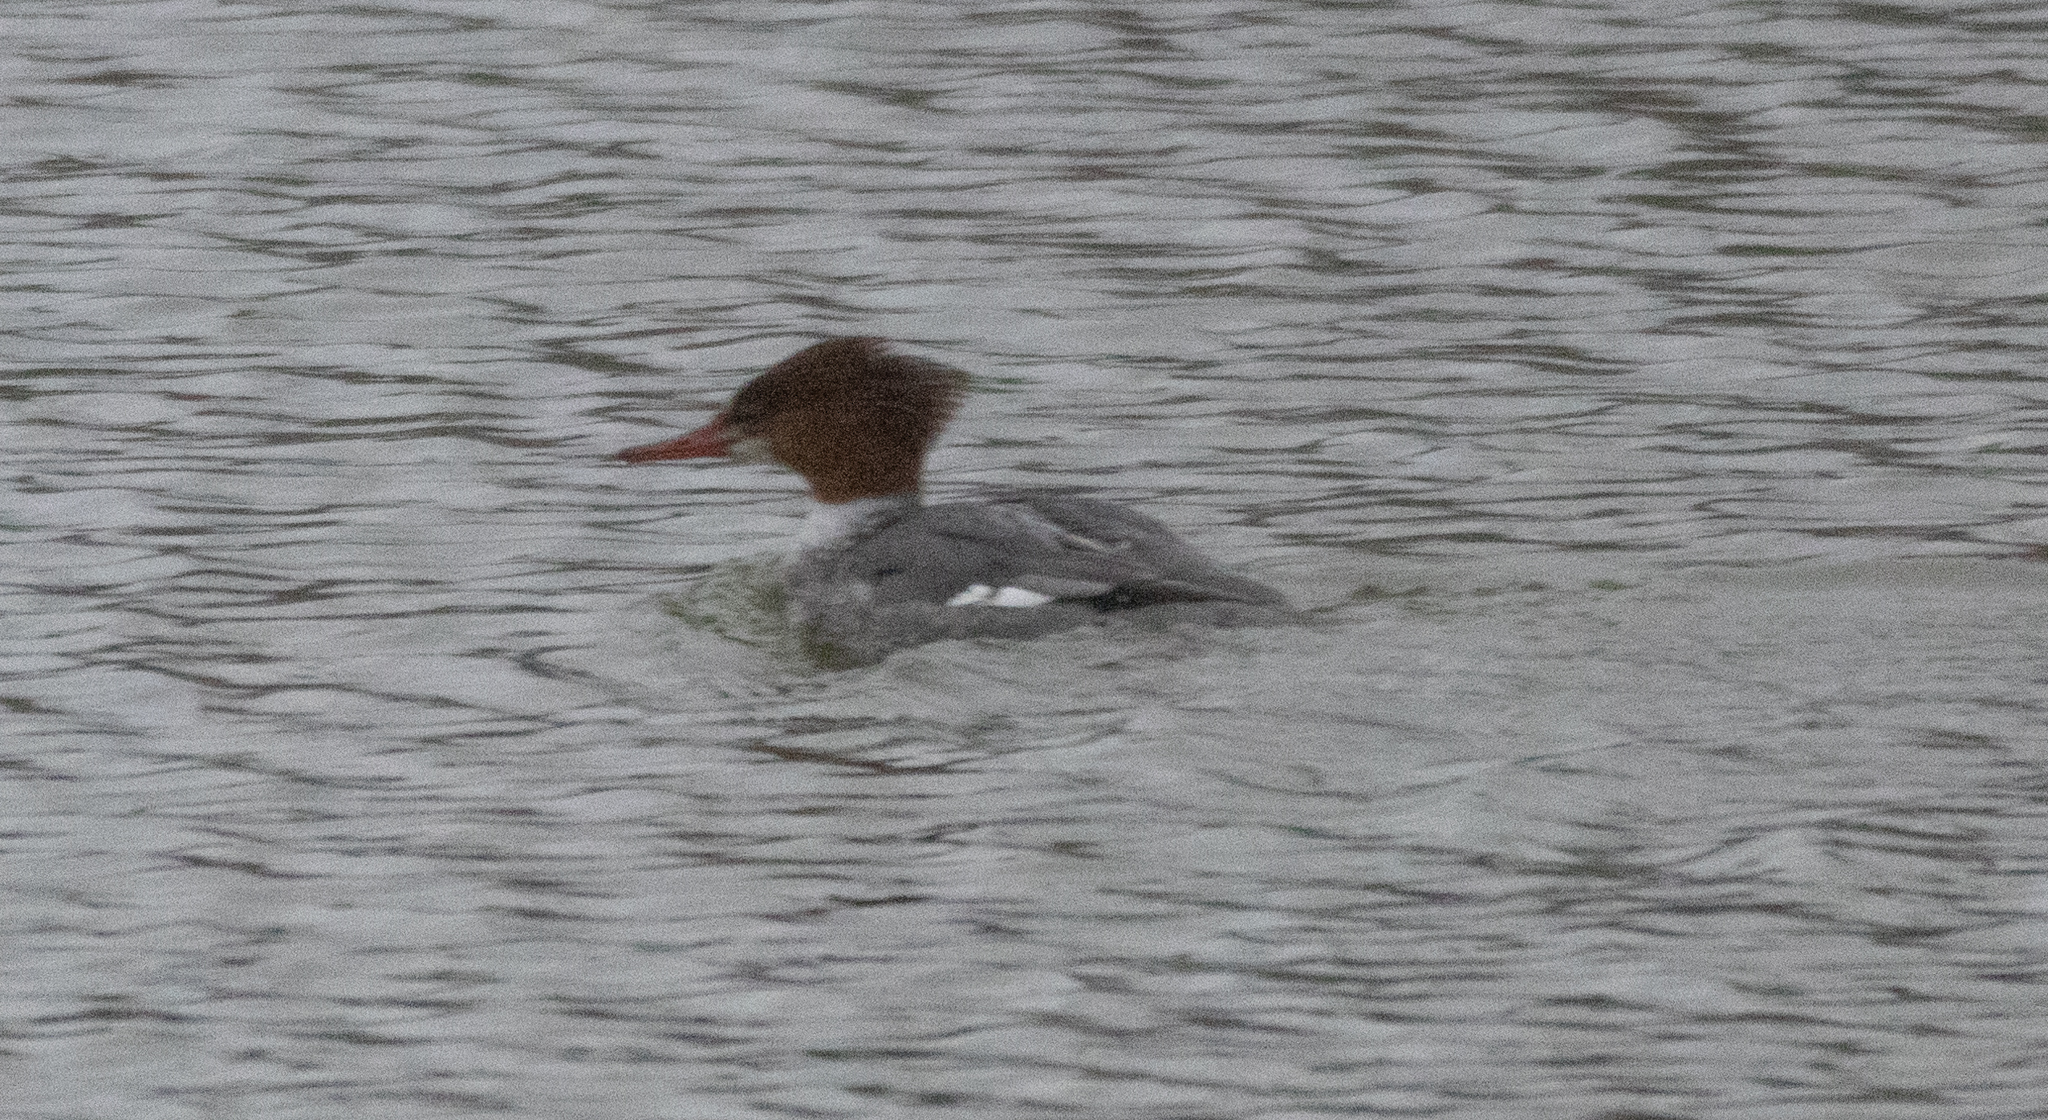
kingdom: Animalia
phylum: Chordata
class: Aves
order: Anseriformes
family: Anatidae
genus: Mergus
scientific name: Mergus merganser
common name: Common merganser
